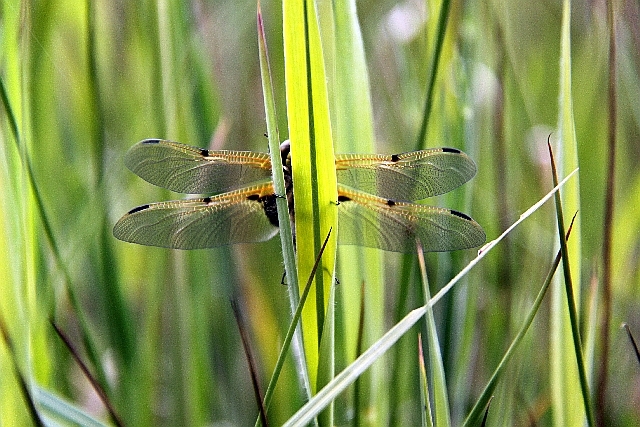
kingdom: Animalia
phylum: Arthropoda
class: Insecta
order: Odonata
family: Libellulidae
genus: Libellula
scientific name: Libellula quadrimaculata
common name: Four-spotted chaser
